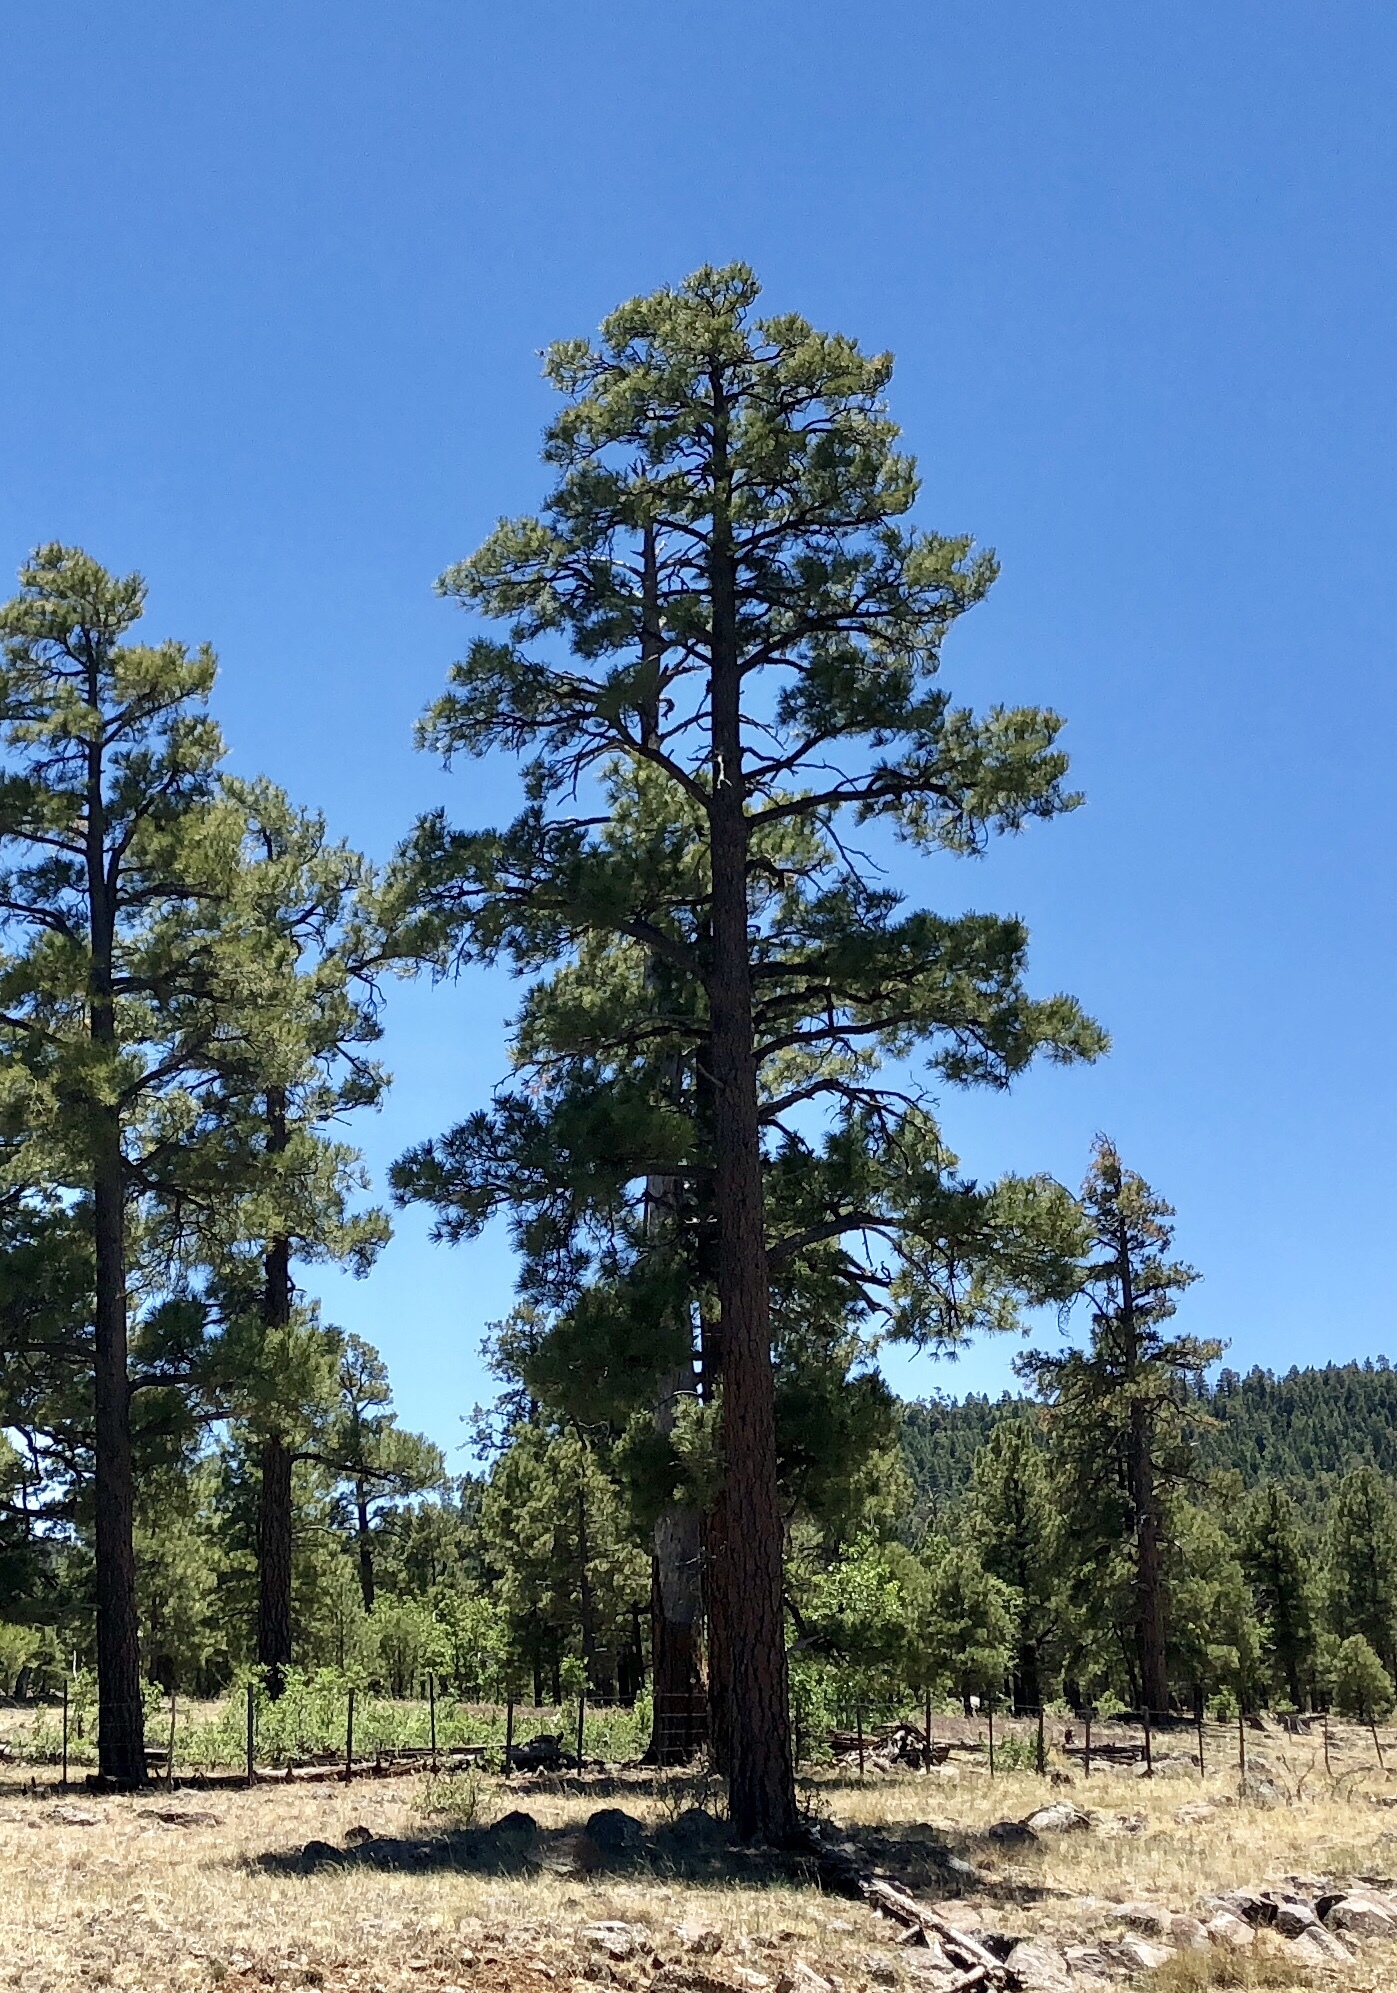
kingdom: Plantae
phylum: Tracheophyta
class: Pinopsida
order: Pinales
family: Pinaceae
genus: Pinus
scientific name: Pinus ponderosa
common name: Western yellow-pine
